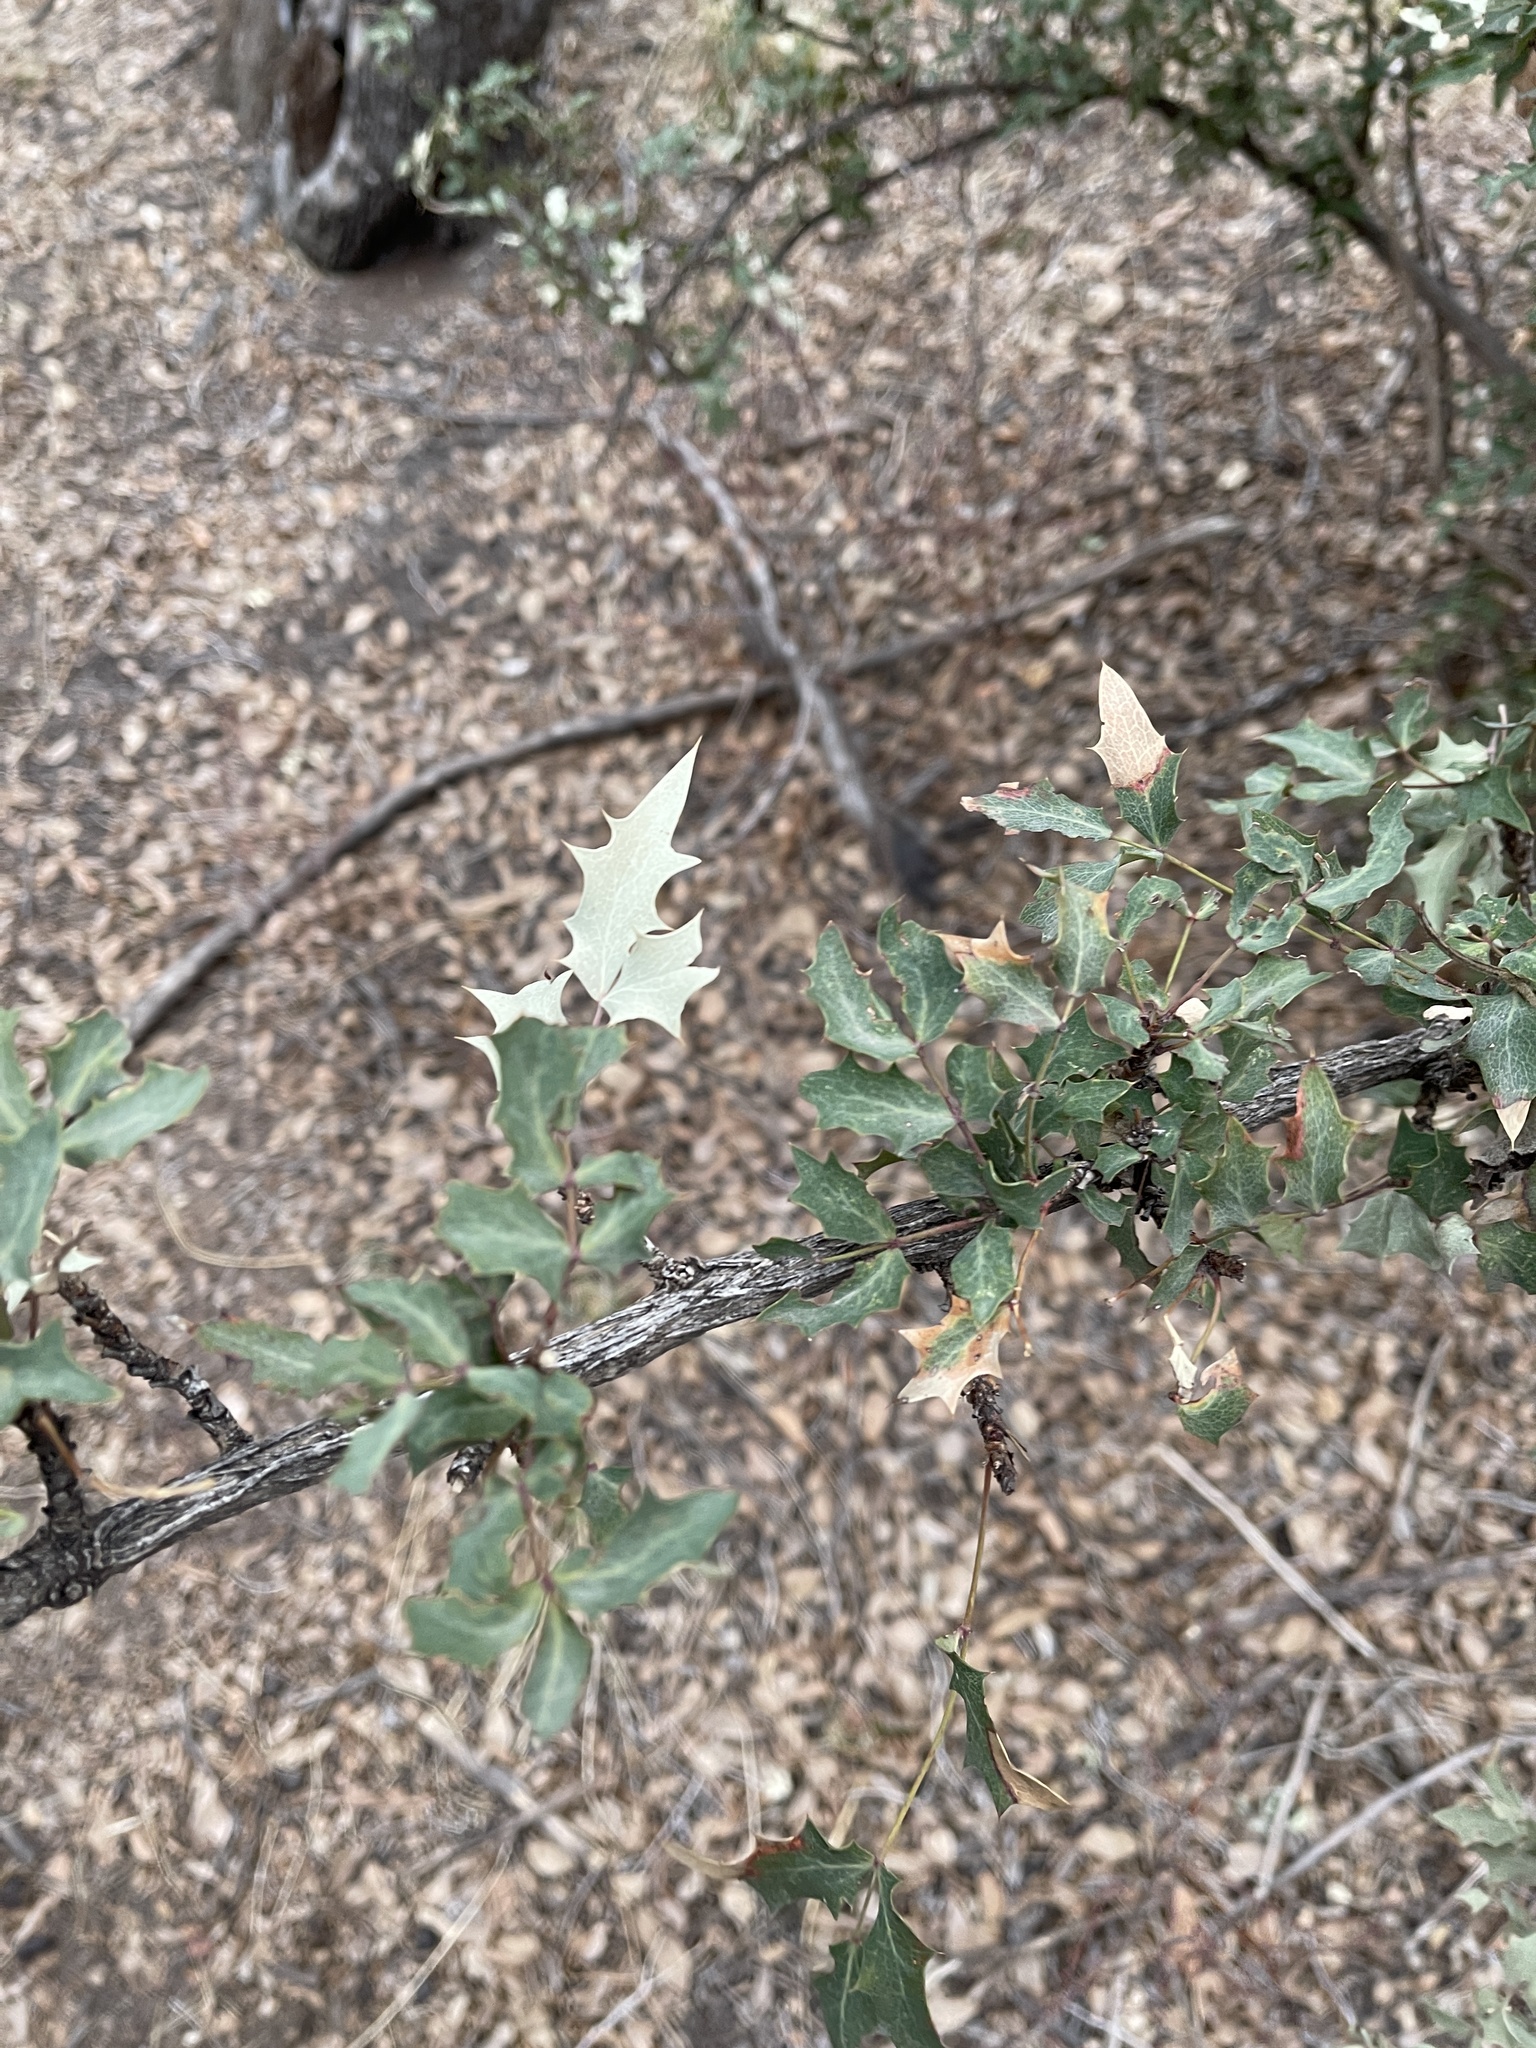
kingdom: Plantae
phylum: Tracheophyta
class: Magnoliopsida
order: Ranunculales
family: Berberidaceae
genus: Alloberberis
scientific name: Alloberberis haematocarpa
